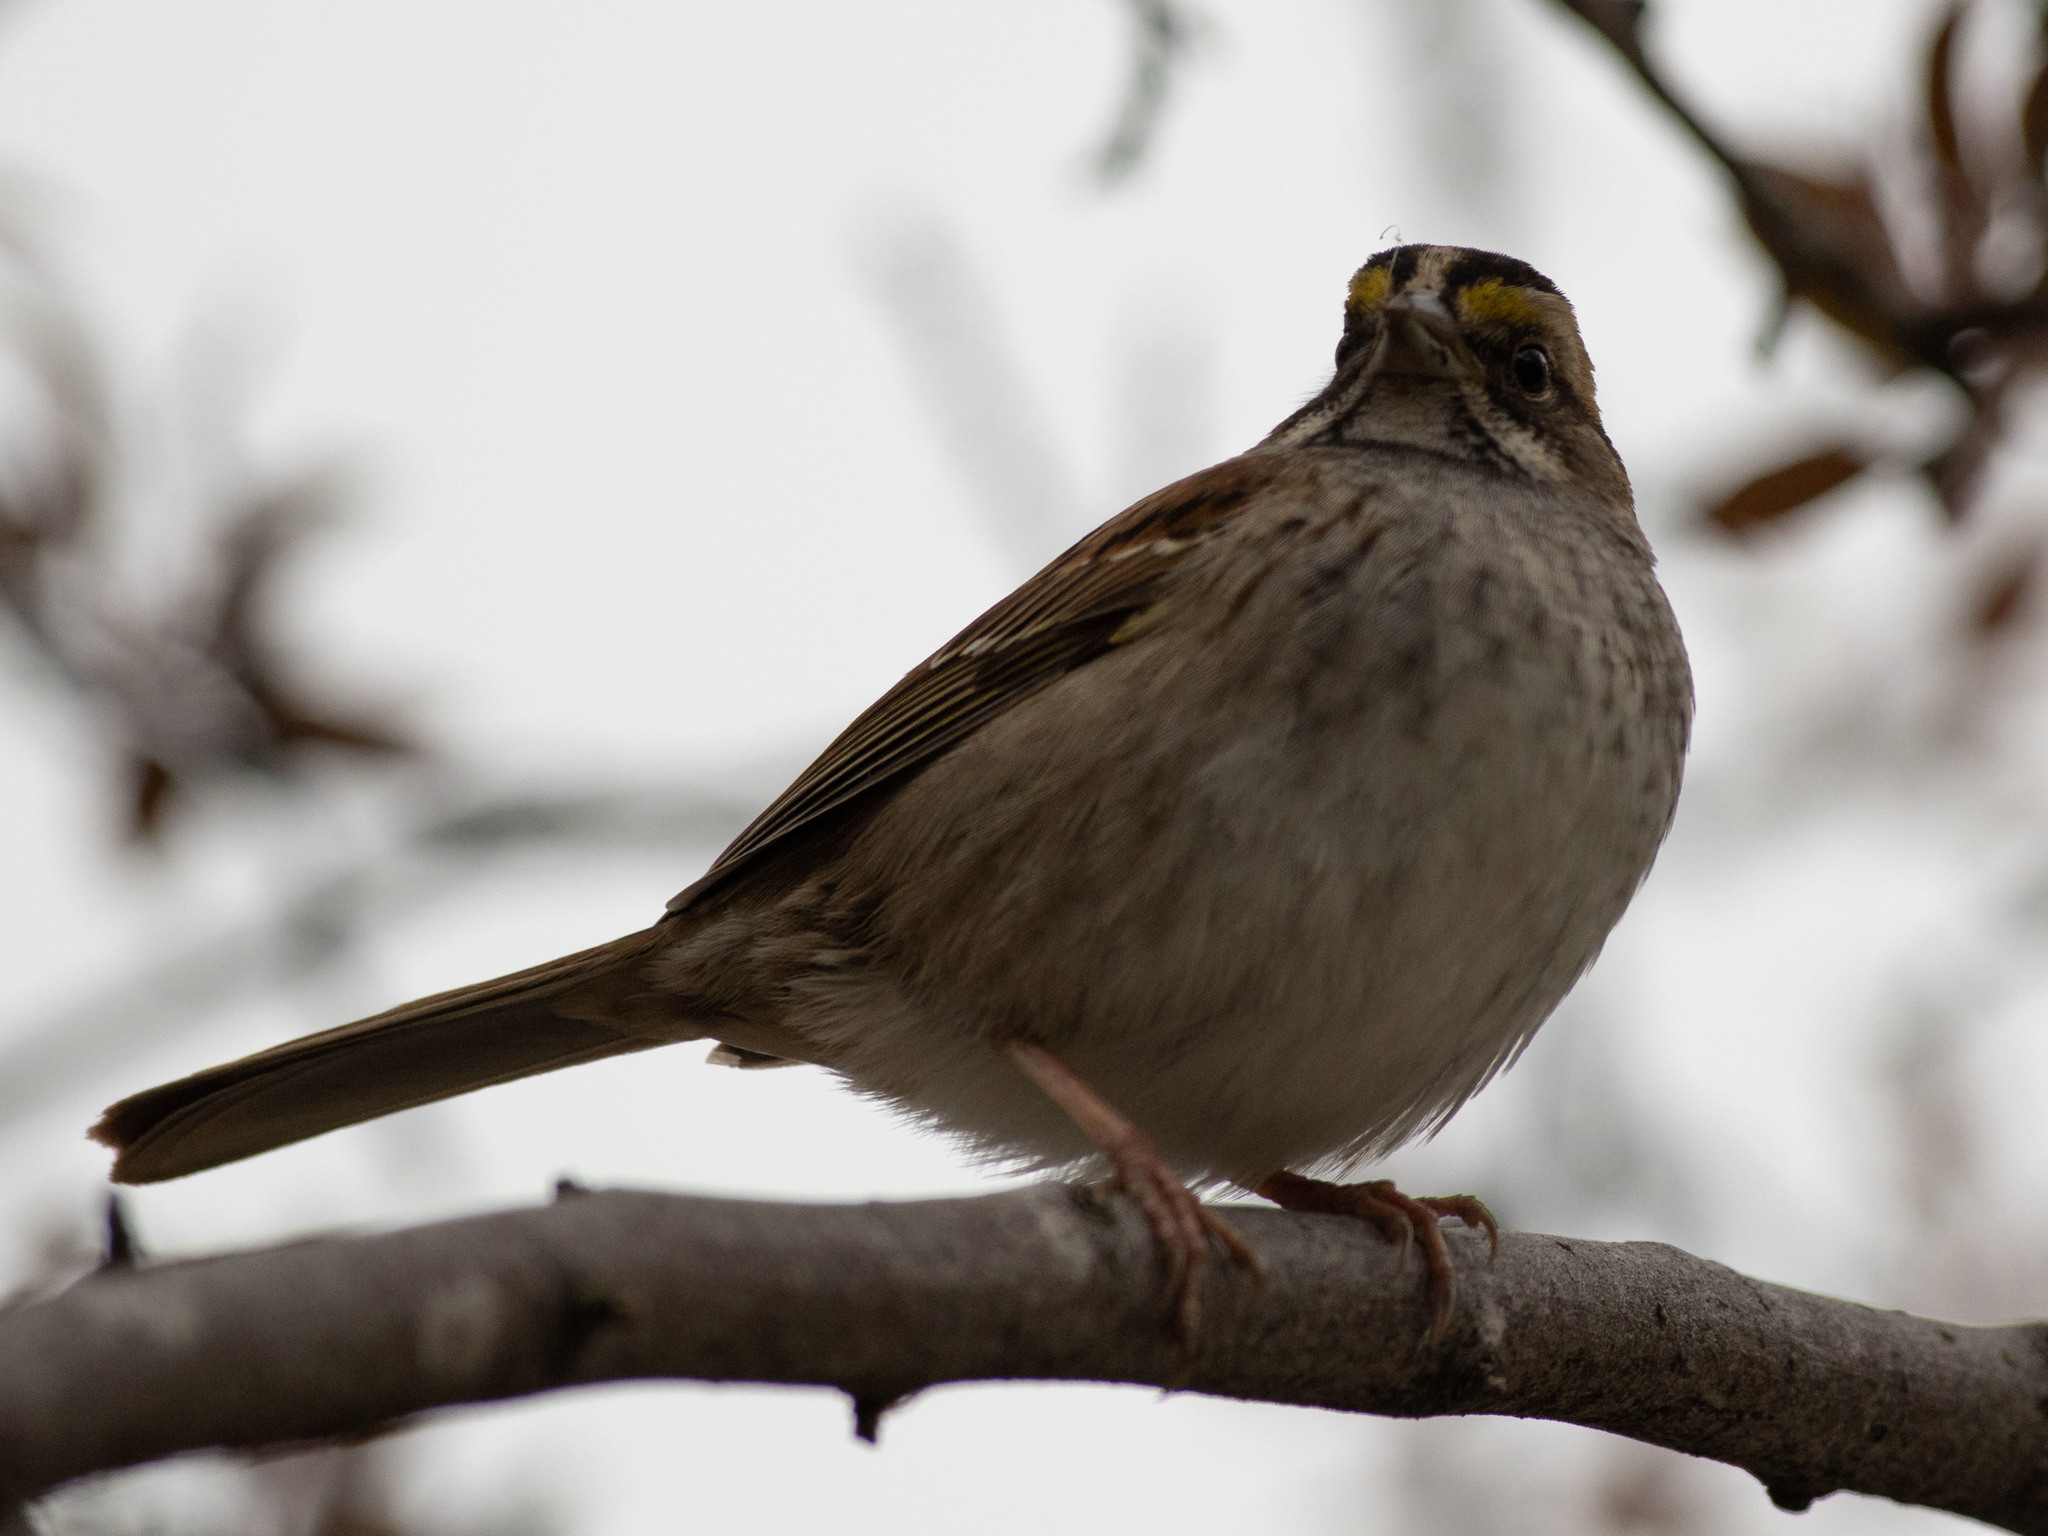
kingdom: Animalia
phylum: Chordata
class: Aves
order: Passeriformes
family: Passerellidae
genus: Zonotrichia
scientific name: Zonotrichia albicollis
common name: White-throated sparrow
